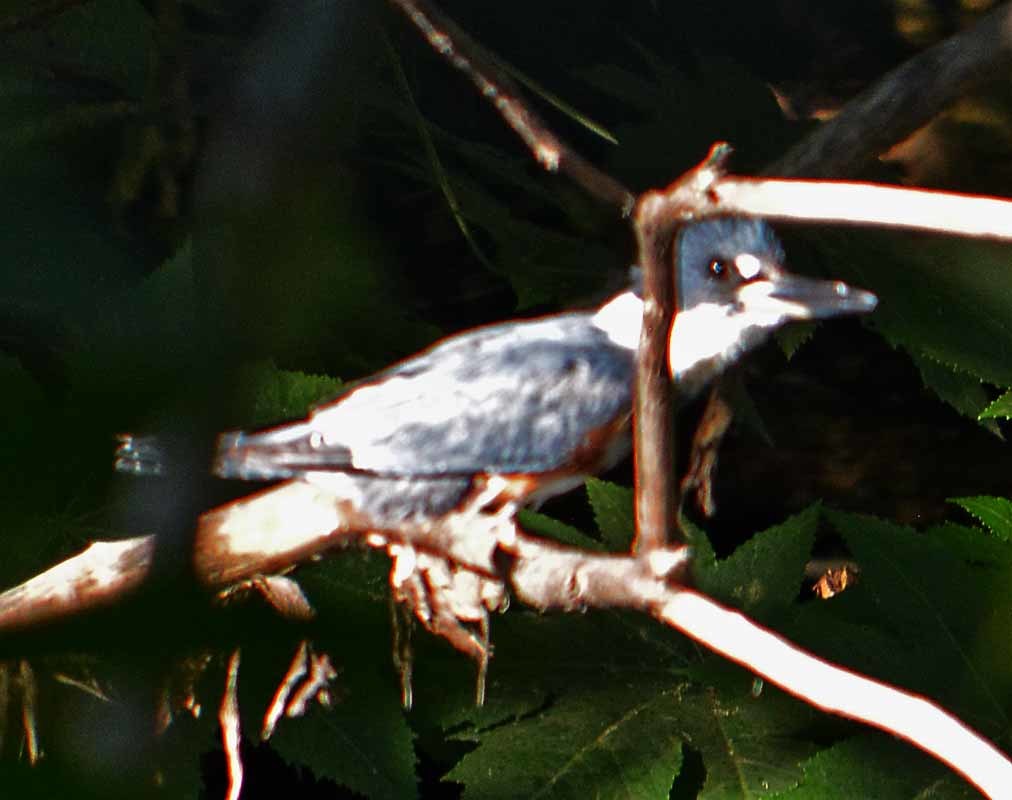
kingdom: Animalia
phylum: Chordata
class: Aves
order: Coraciiformes
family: Alcedinidae
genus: Megaceryle
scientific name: Megaceryle alcyon
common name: Belted kingfisher
